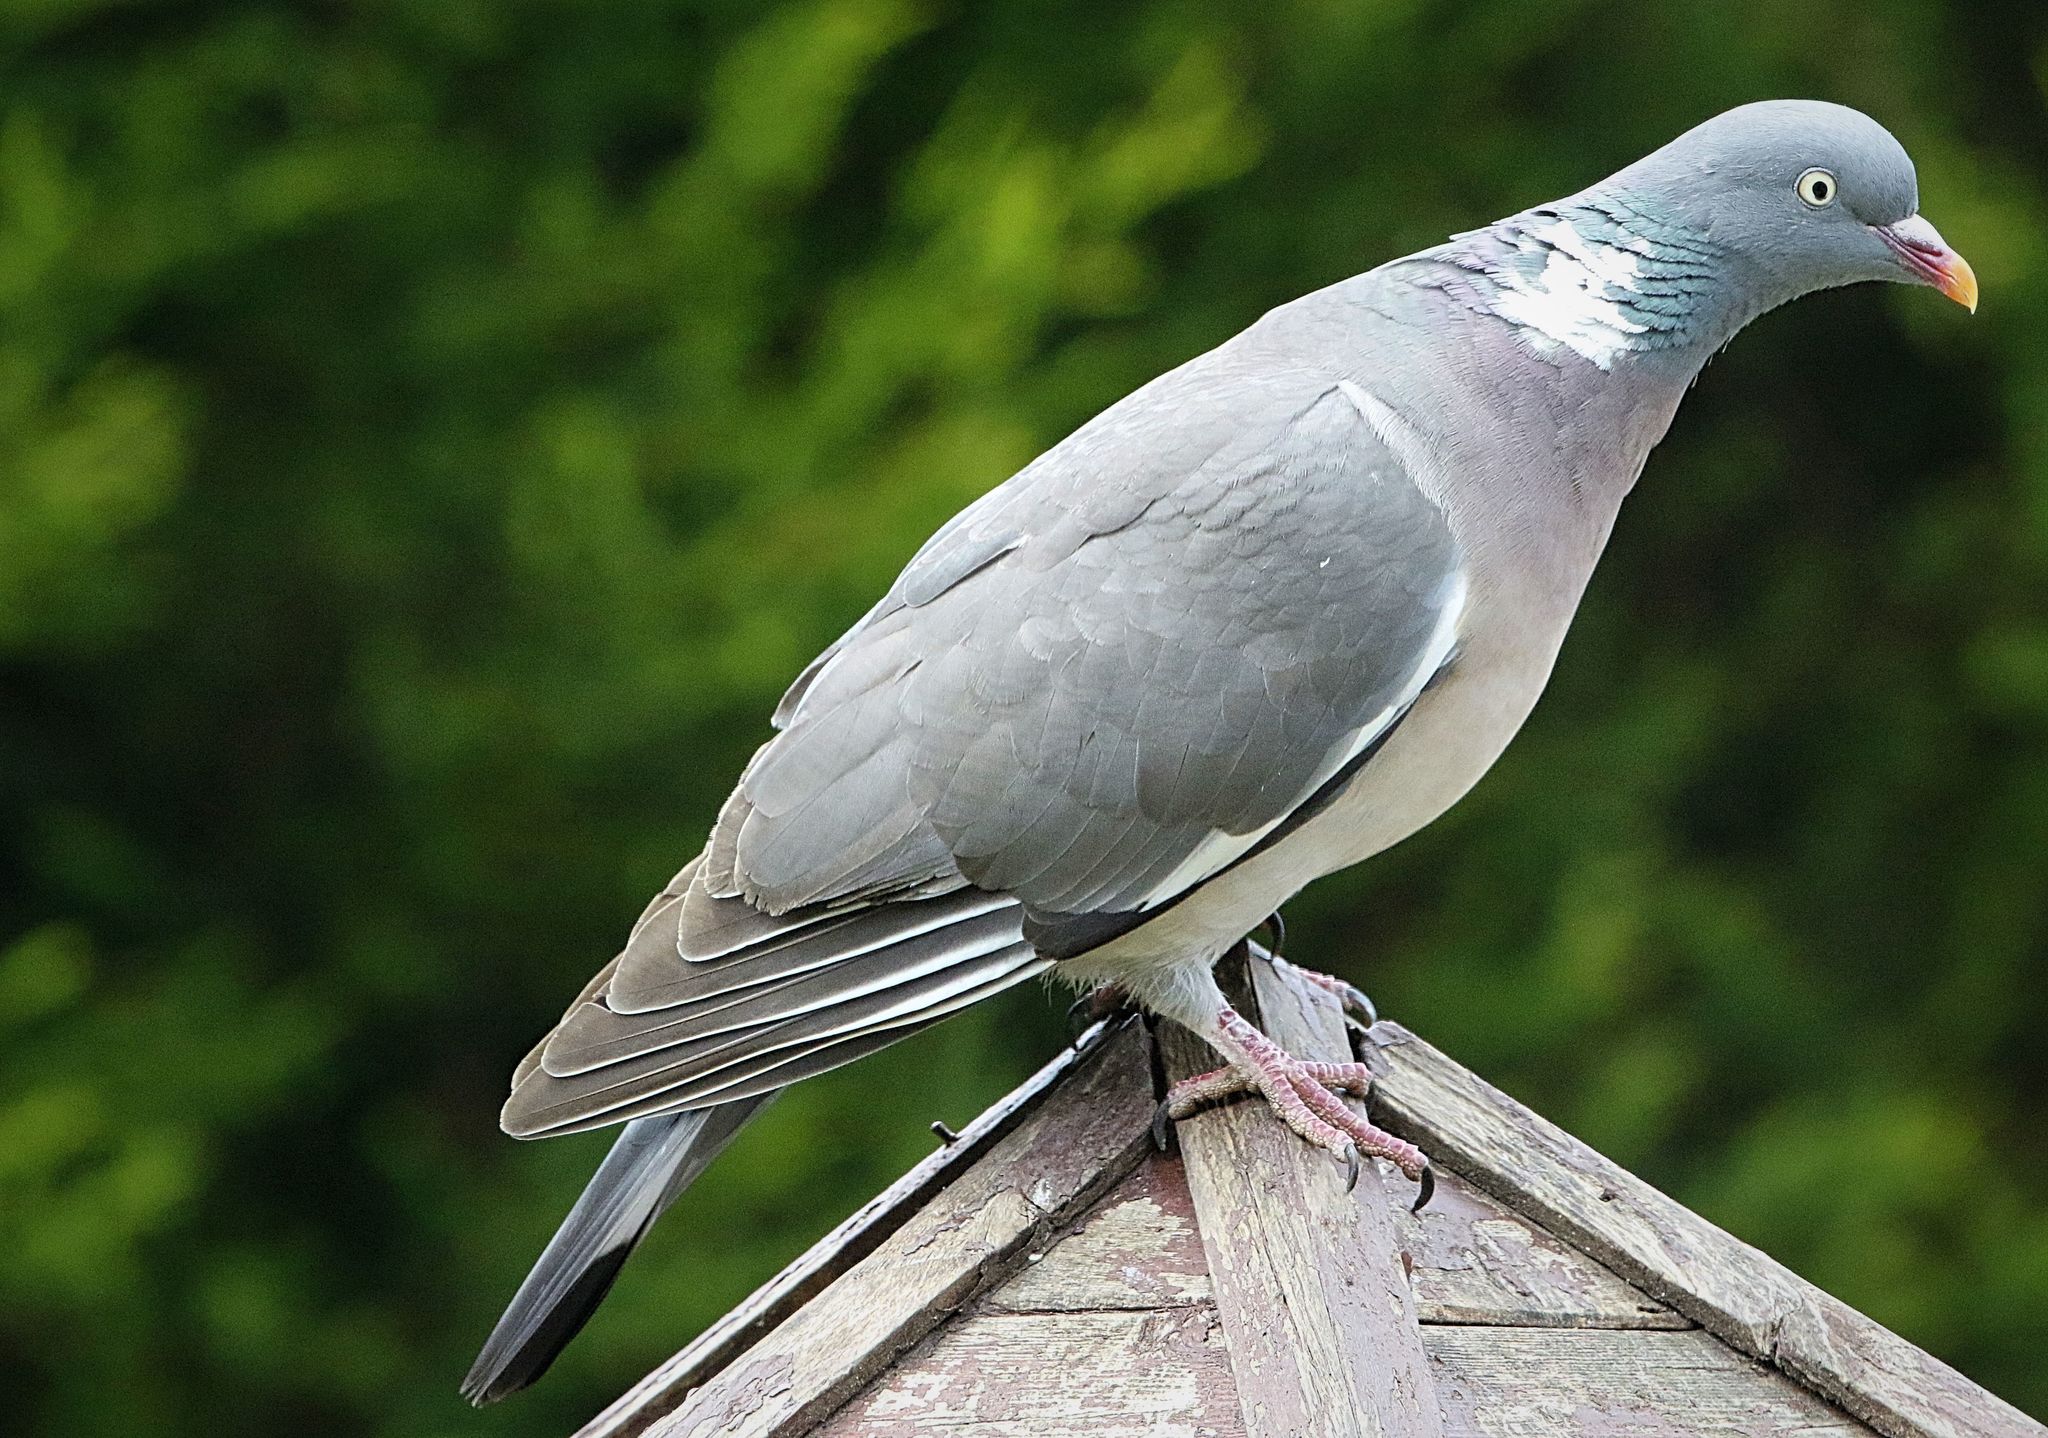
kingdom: Animalia
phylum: Chordata
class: Aves
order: Columbiformes
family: Columbidae
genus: Columba
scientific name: Columba palumbus
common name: Common wood pigeon
